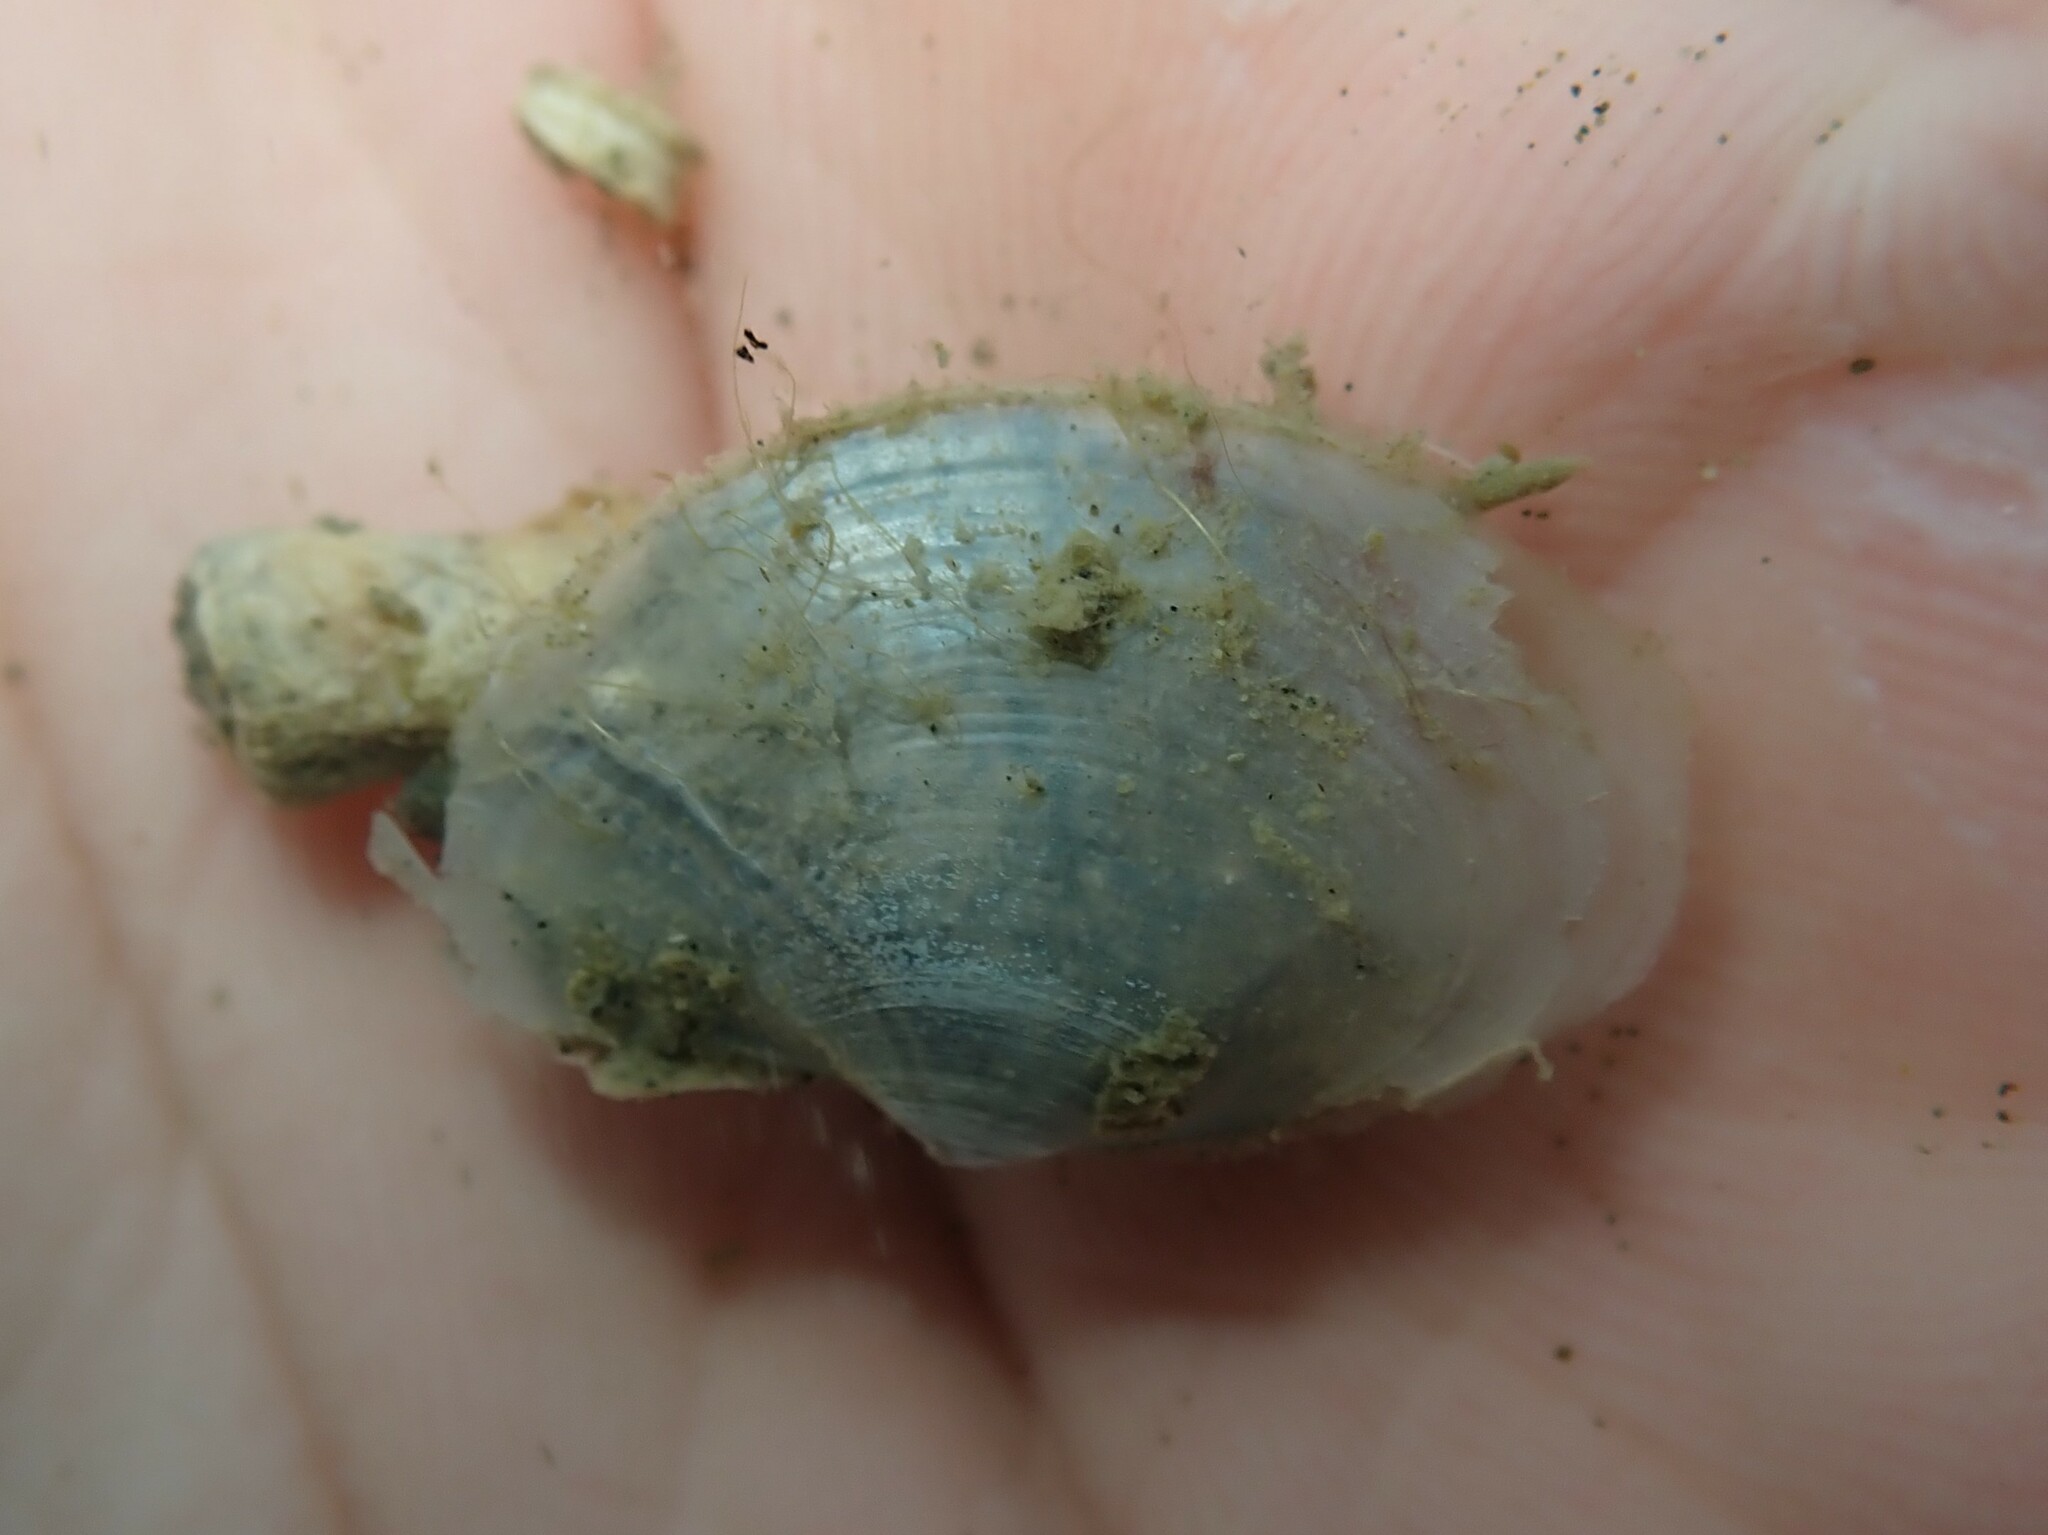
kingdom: Animalia
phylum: Mollusca
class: Bivalvia
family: Periplomatidae
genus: Offadesma
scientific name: Offadesma angasi
